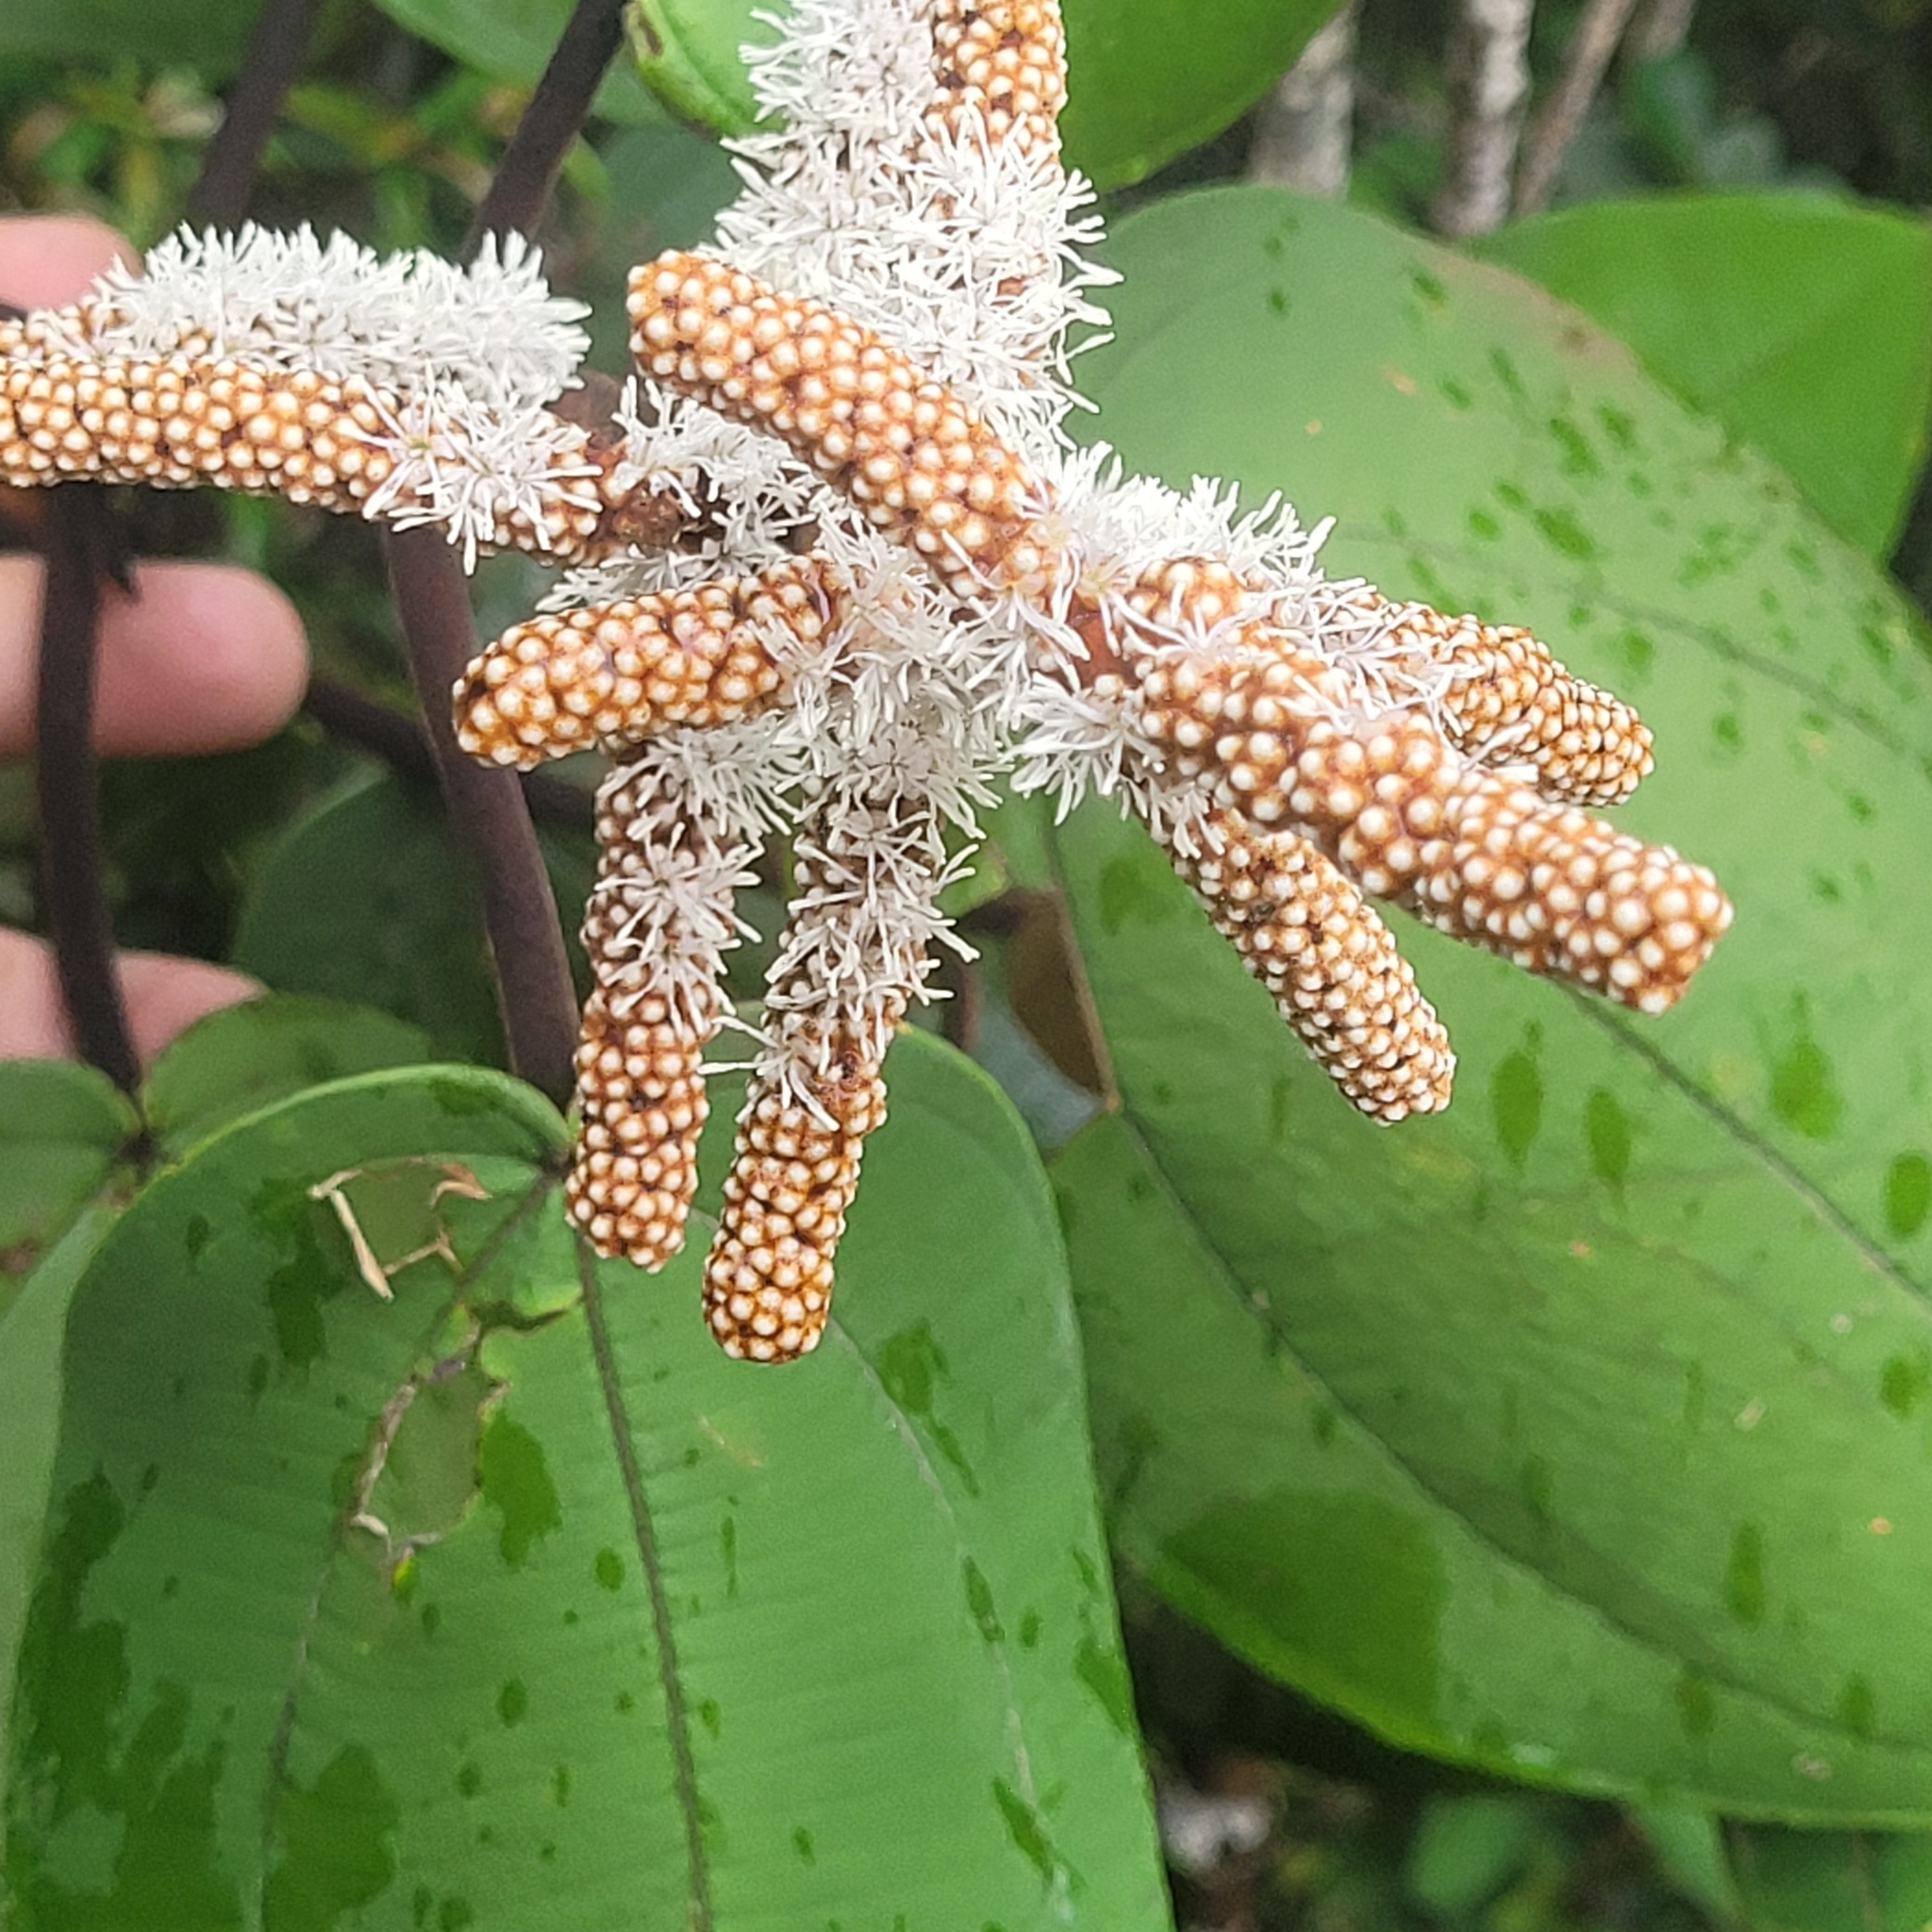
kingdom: Plantae
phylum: Tracheophyta
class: Magnoliopsida
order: Myrtales
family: Melastomataceae
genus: Miconia
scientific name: Miconia corallina
